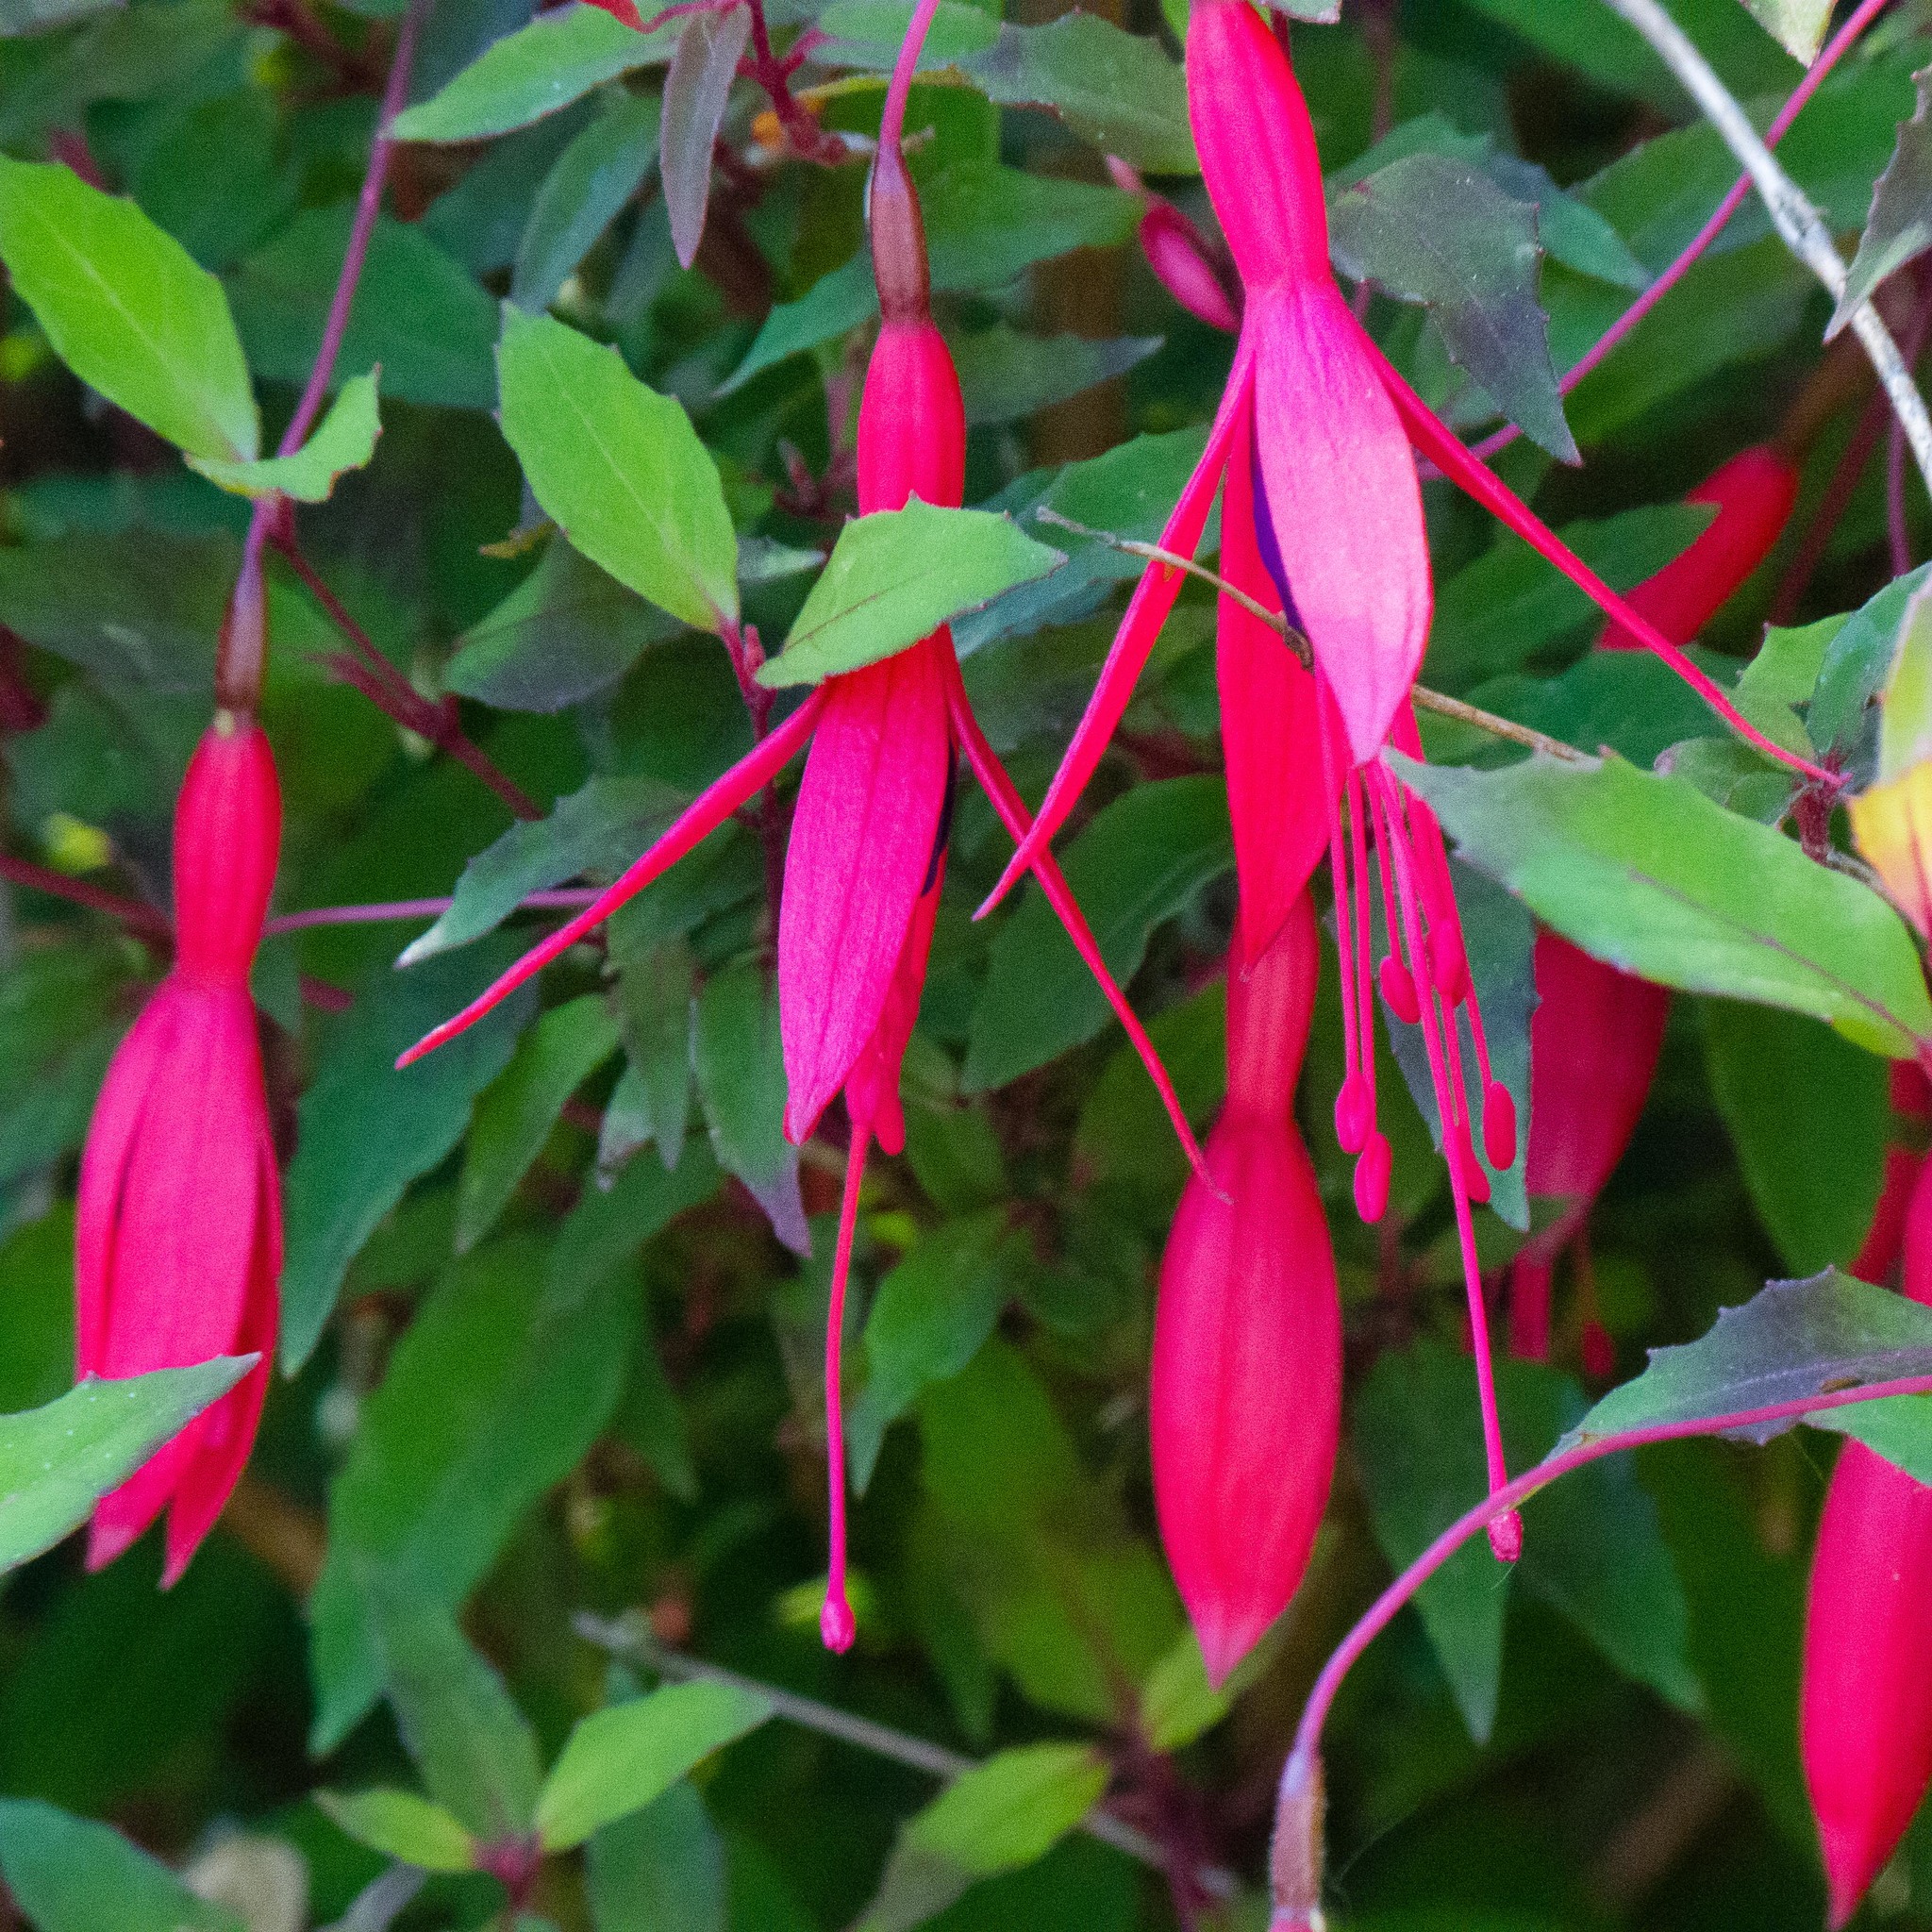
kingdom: Plantae
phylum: Tracheophyta
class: Magnoliopsida
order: Myrtales
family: Onagraceae
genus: Fuchsia
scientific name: Fuchsia magellanica
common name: Hardy fuchsia
